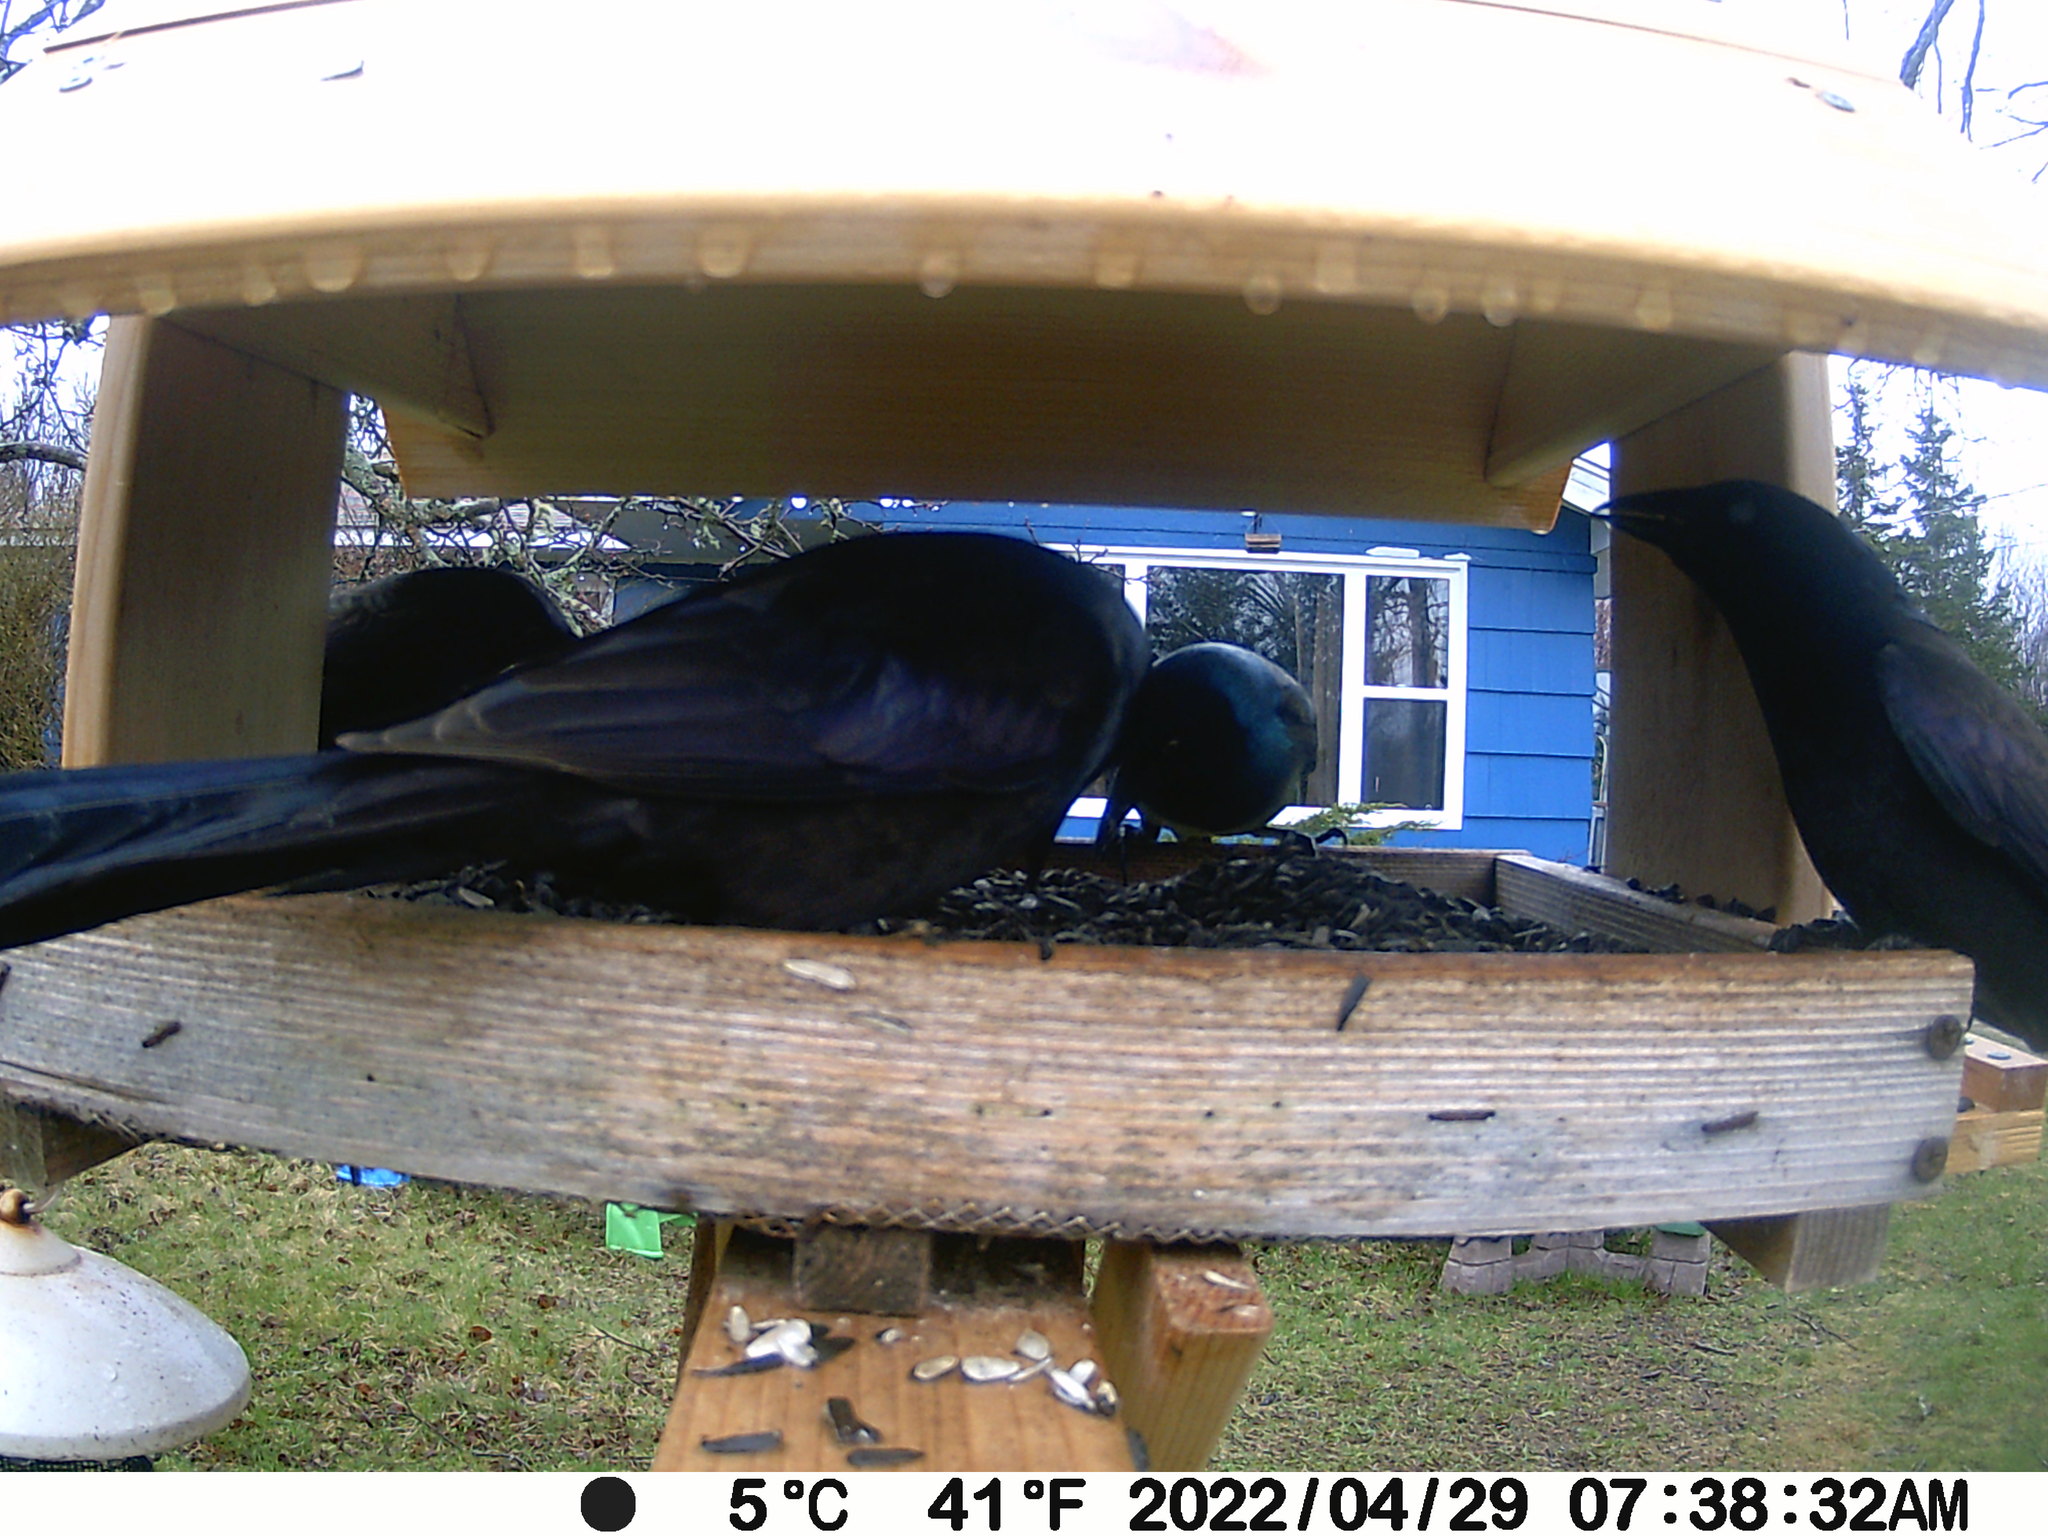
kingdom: Animalia
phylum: Chordata
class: Aves
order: Passeriformes
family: Icteridae
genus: Quiscalus
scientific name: Quiscalus quiscula
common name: Common grackle
